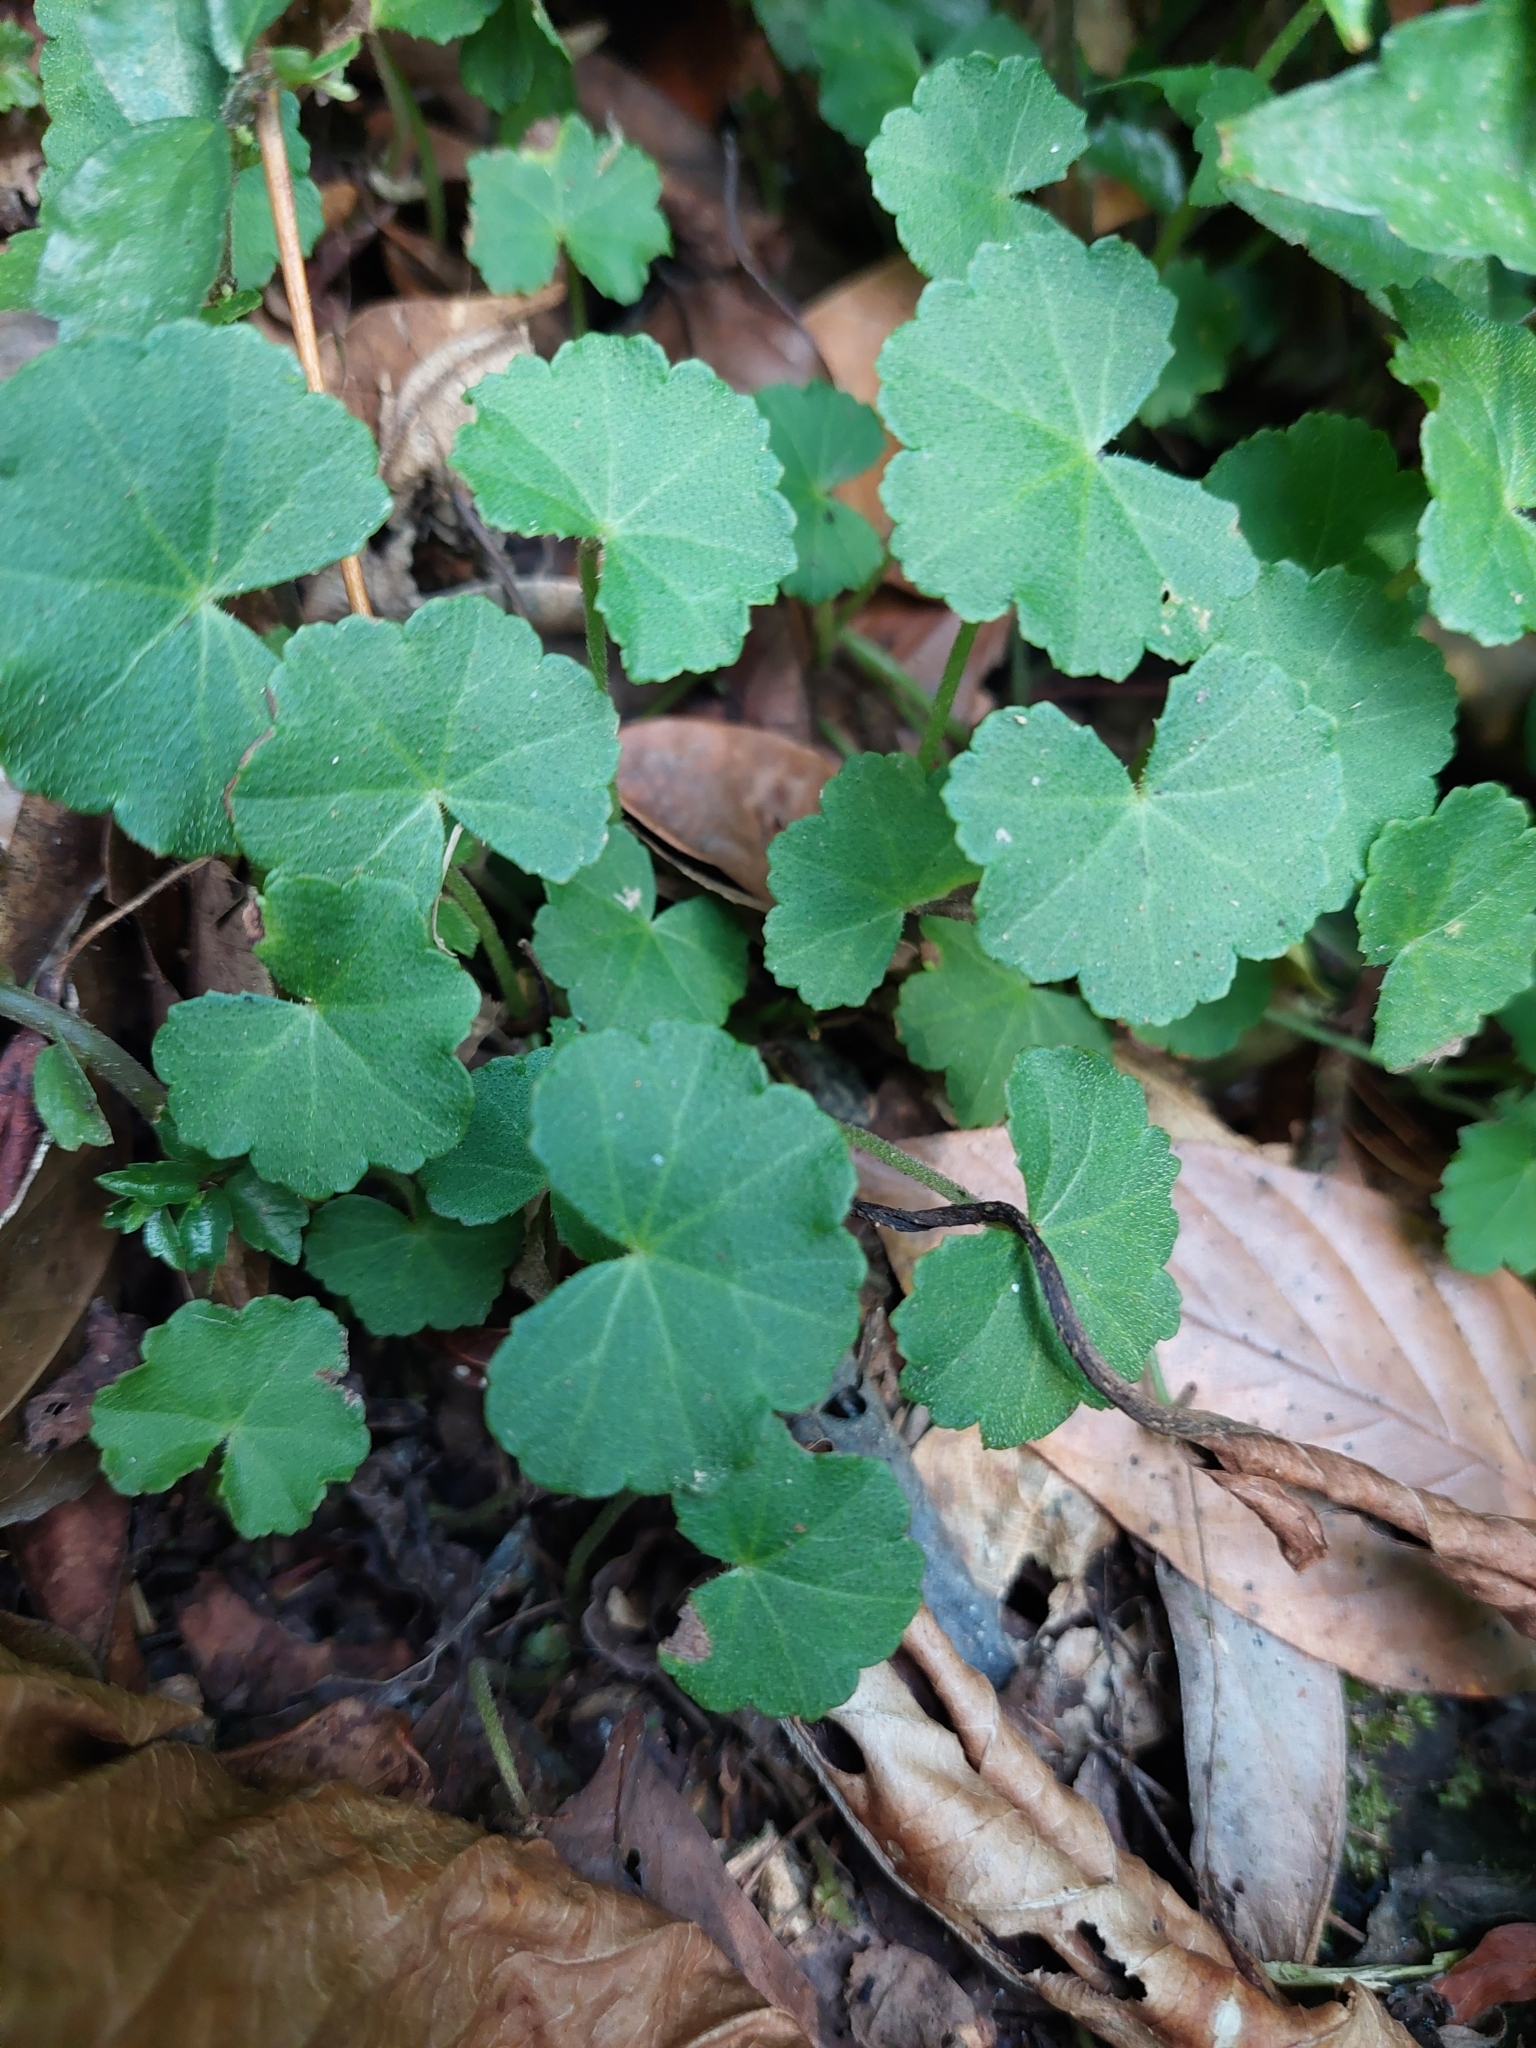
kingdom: Plantae
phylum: Tracheophyta
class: Magnoliopsida
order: Apiales
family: Araliaceae
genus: Hydrocotyle
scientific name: Hydrocotyle nepalensis
